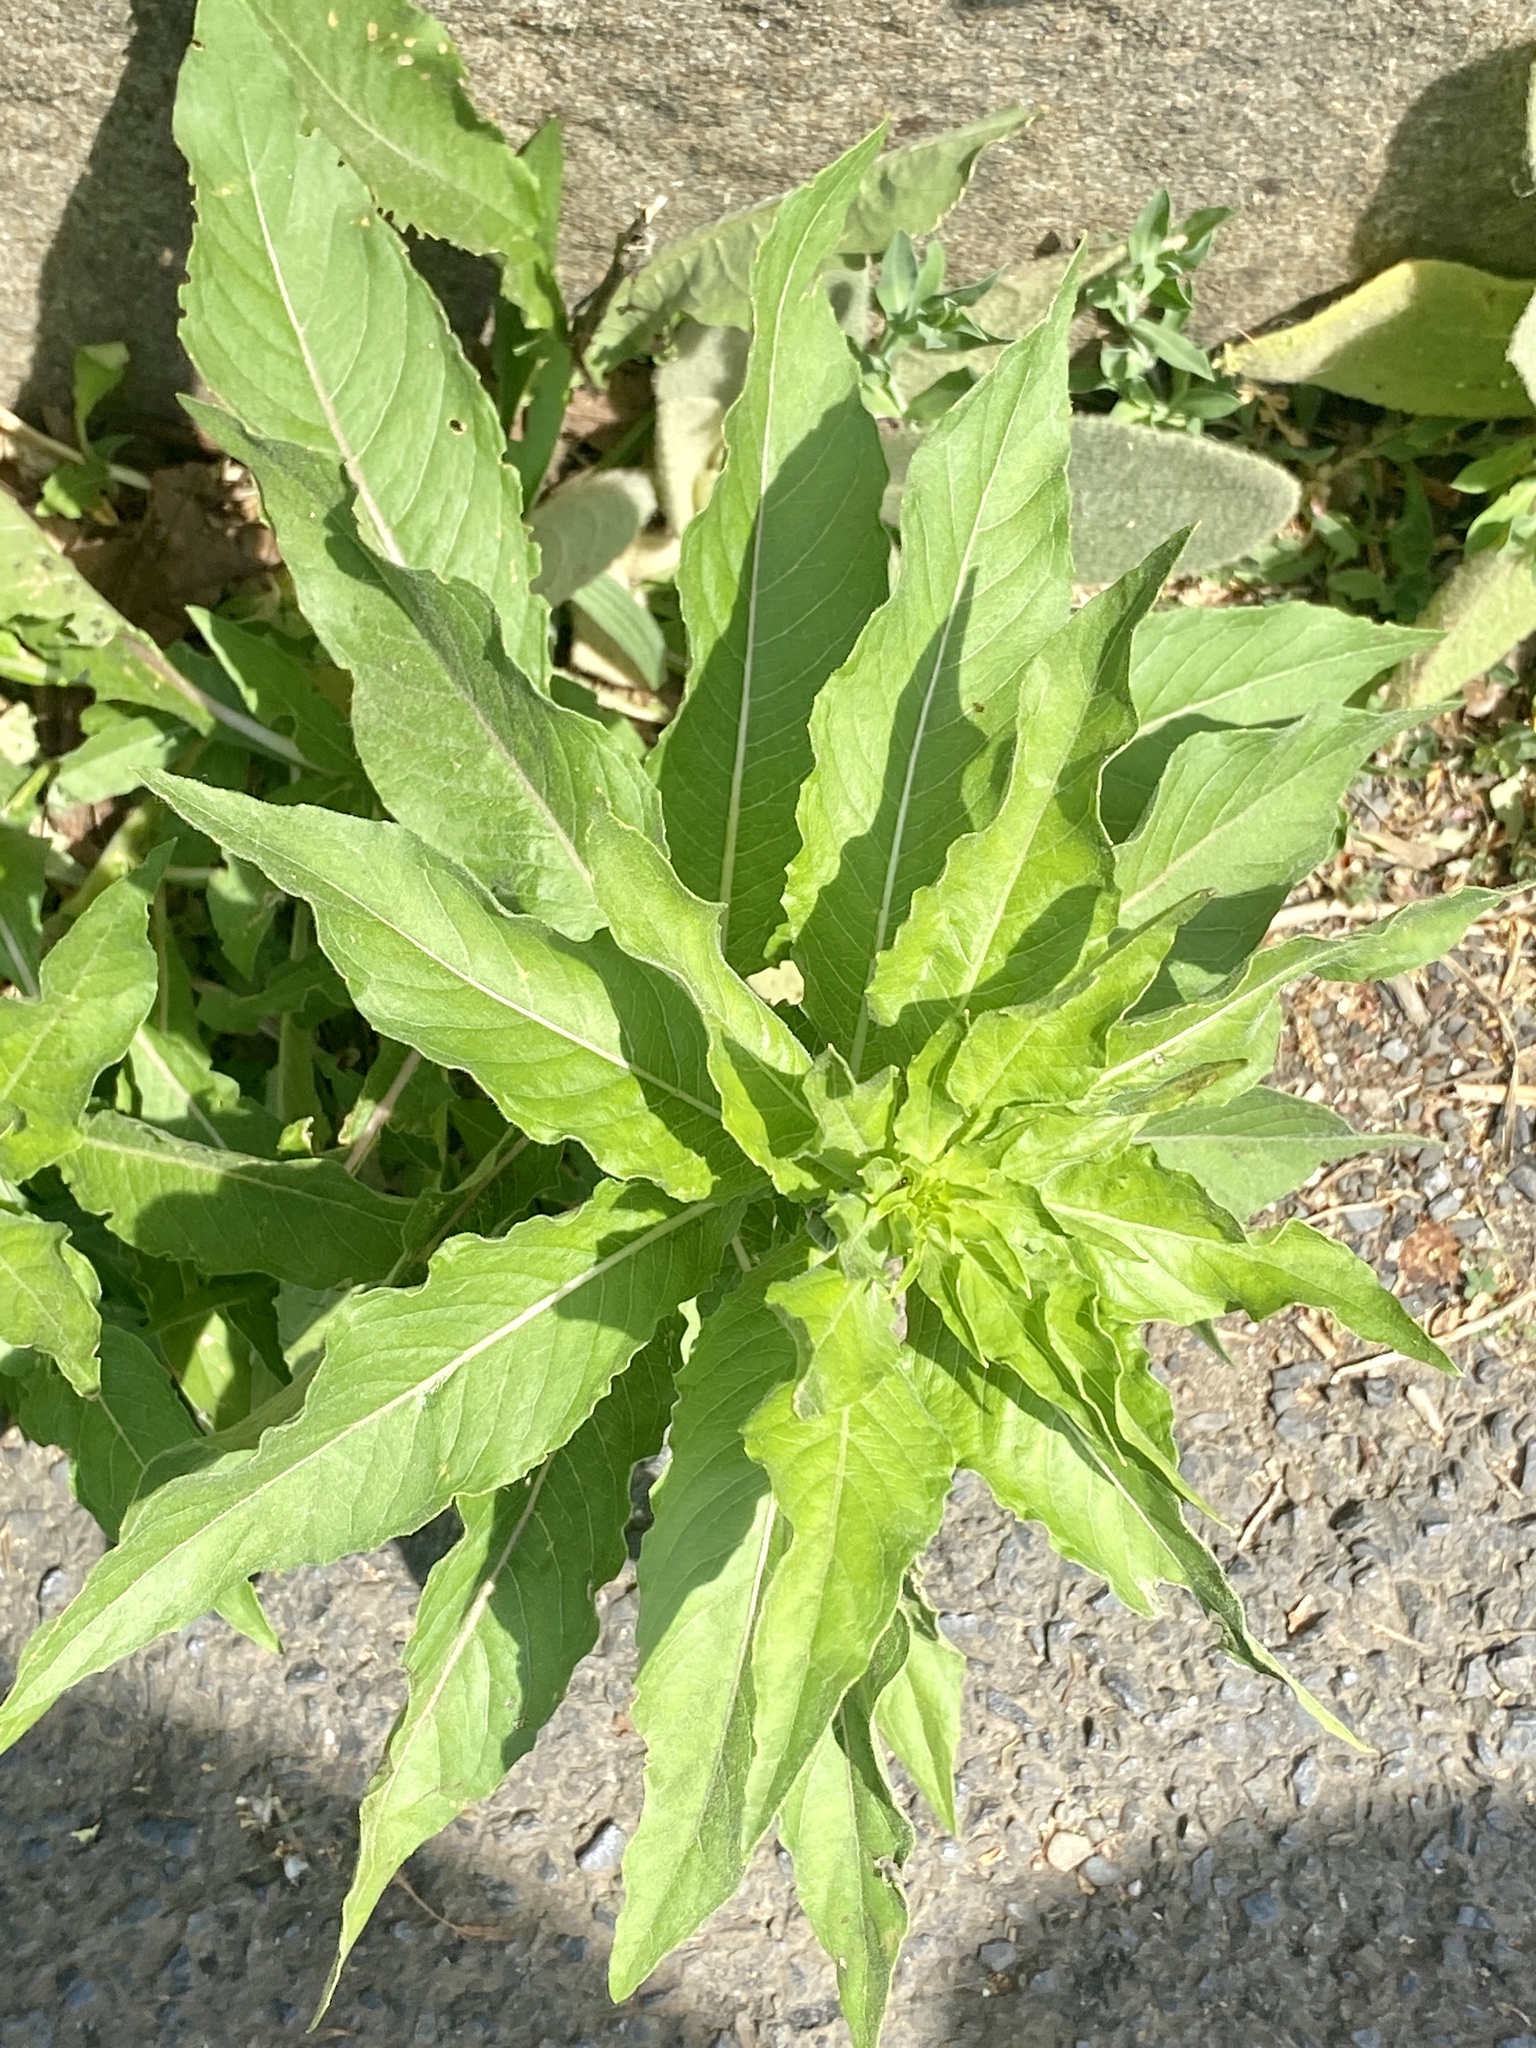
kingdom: Plantae
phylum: Tracheophyta
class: Magnoliopsida
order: Myrtales
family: Onagraceae
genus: Oenothera
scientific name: Oenothera biennis
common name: Common evening-primrose
